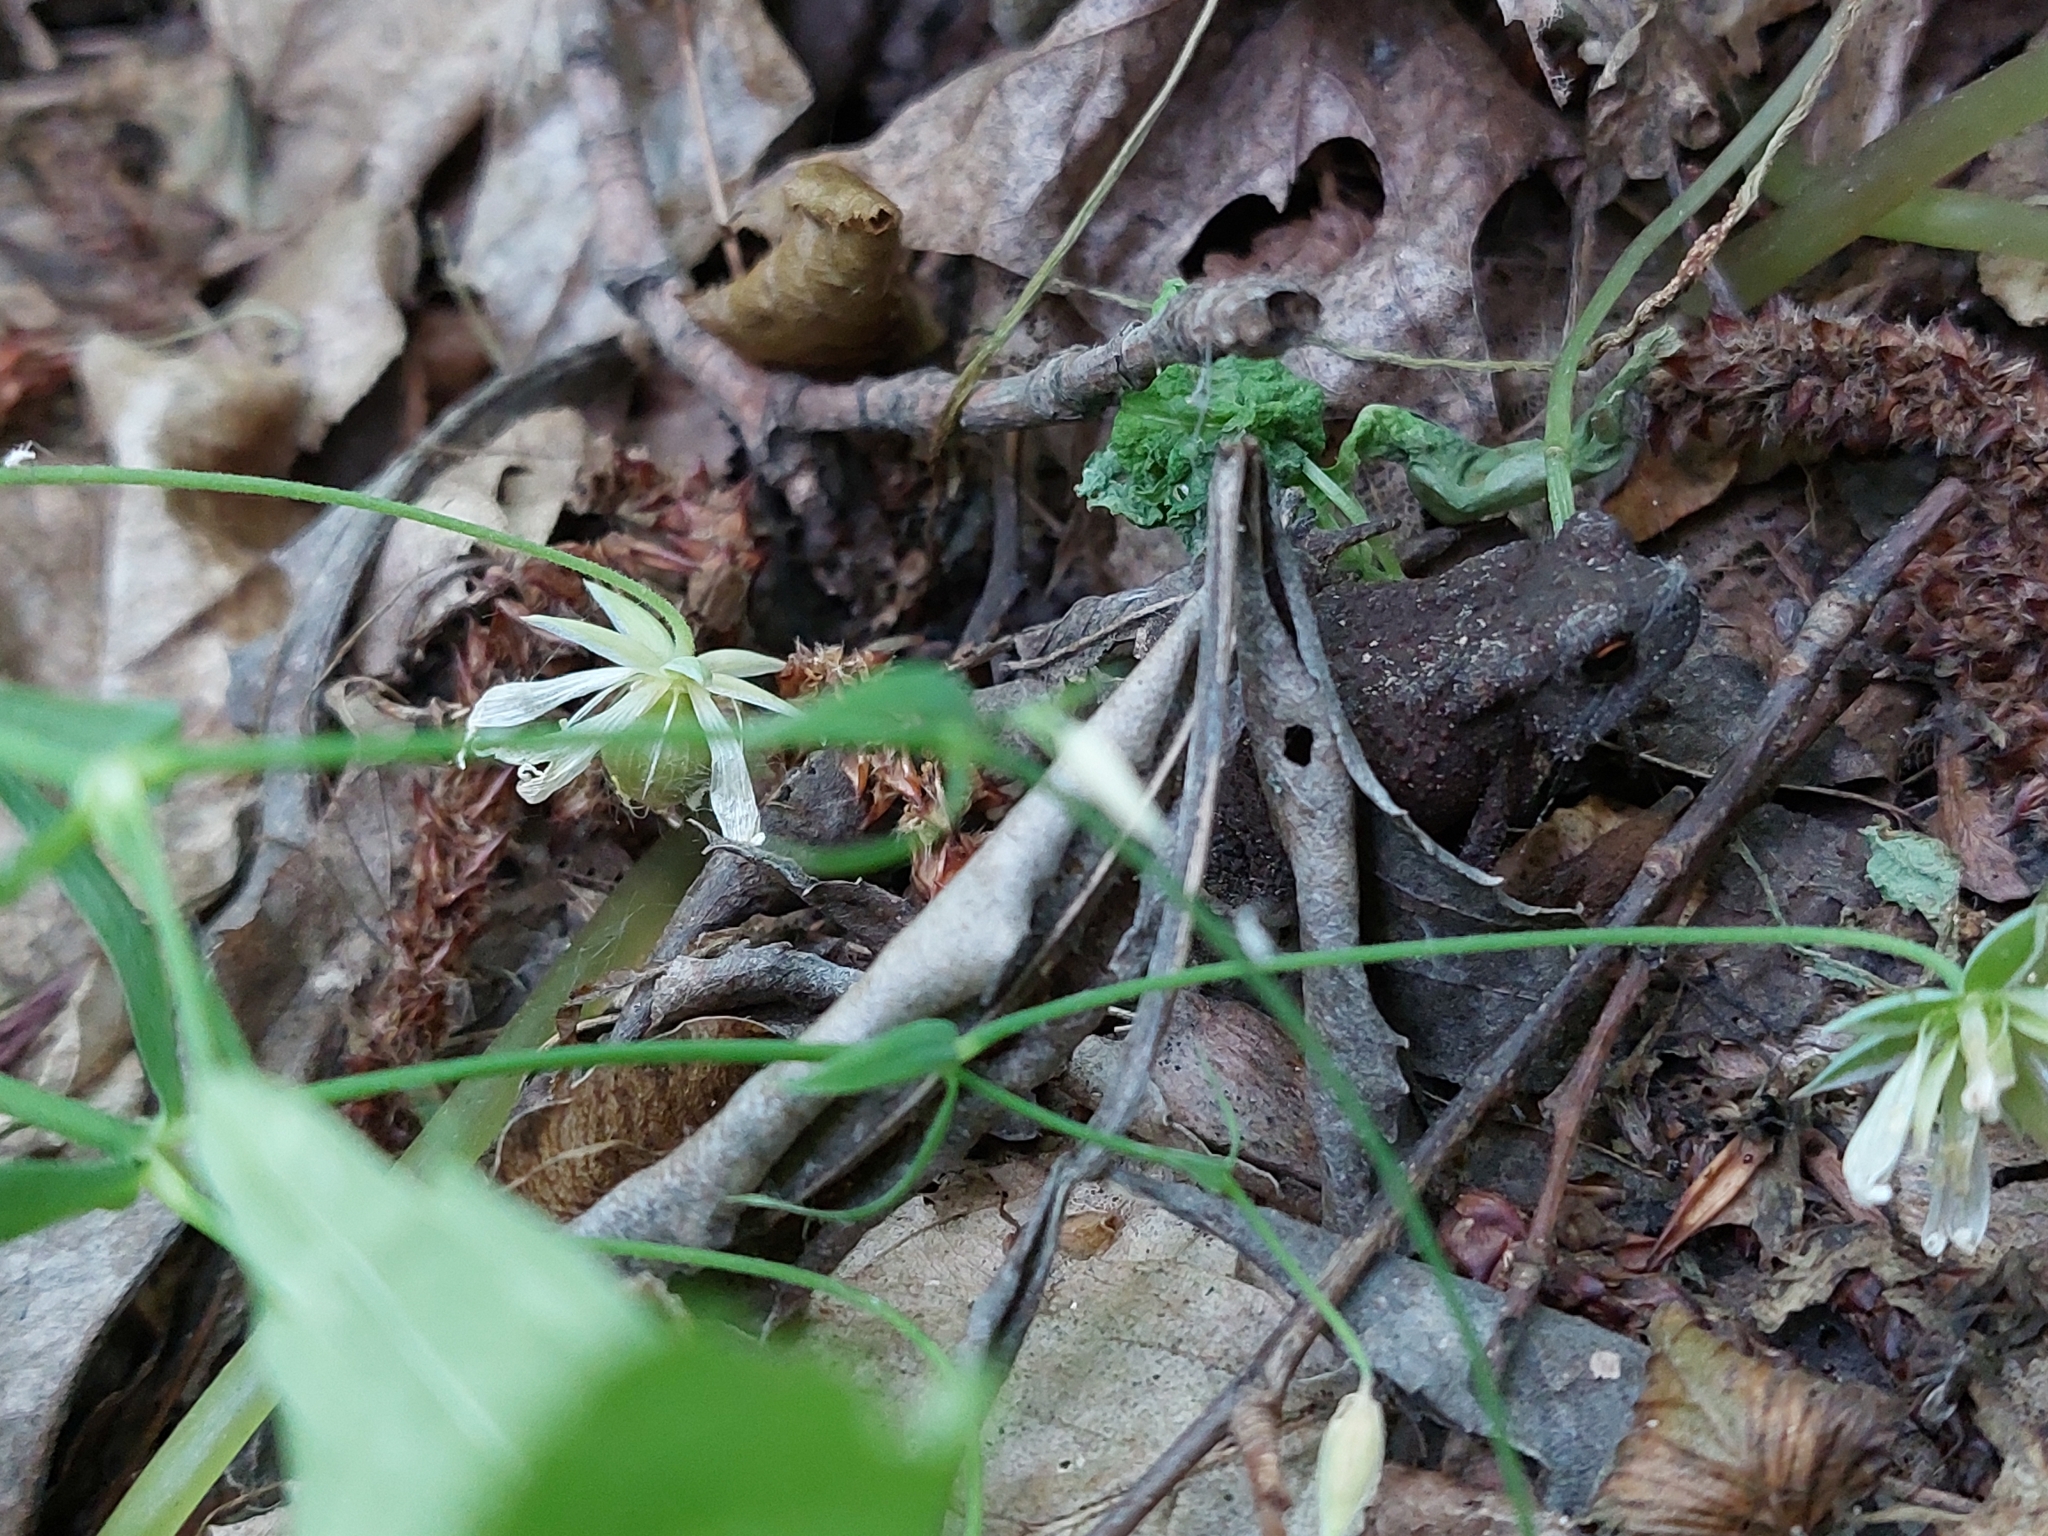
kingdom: Animalia
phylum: Chordata
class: Amphibia
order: Anura
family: Bufonidae
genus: Bufo
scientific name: Bufo bufo
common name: Common toad
